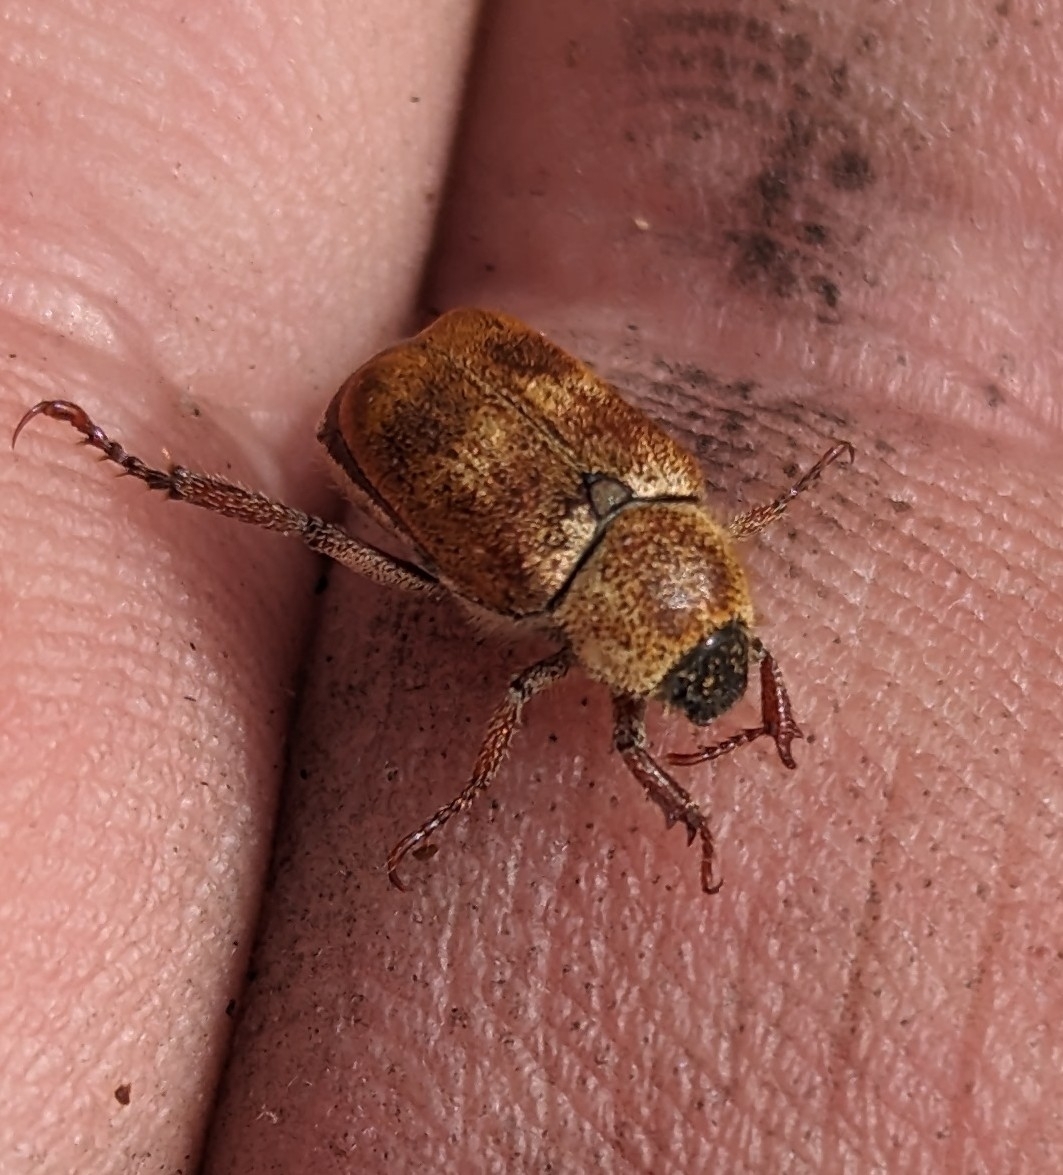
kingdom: Animalia
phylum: Arthropoda
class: Insecta
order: Coleoptera
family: Scarabaeidae
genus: Hoplia
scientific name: Hoplia trifasciata
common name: Three-lined hoplia
